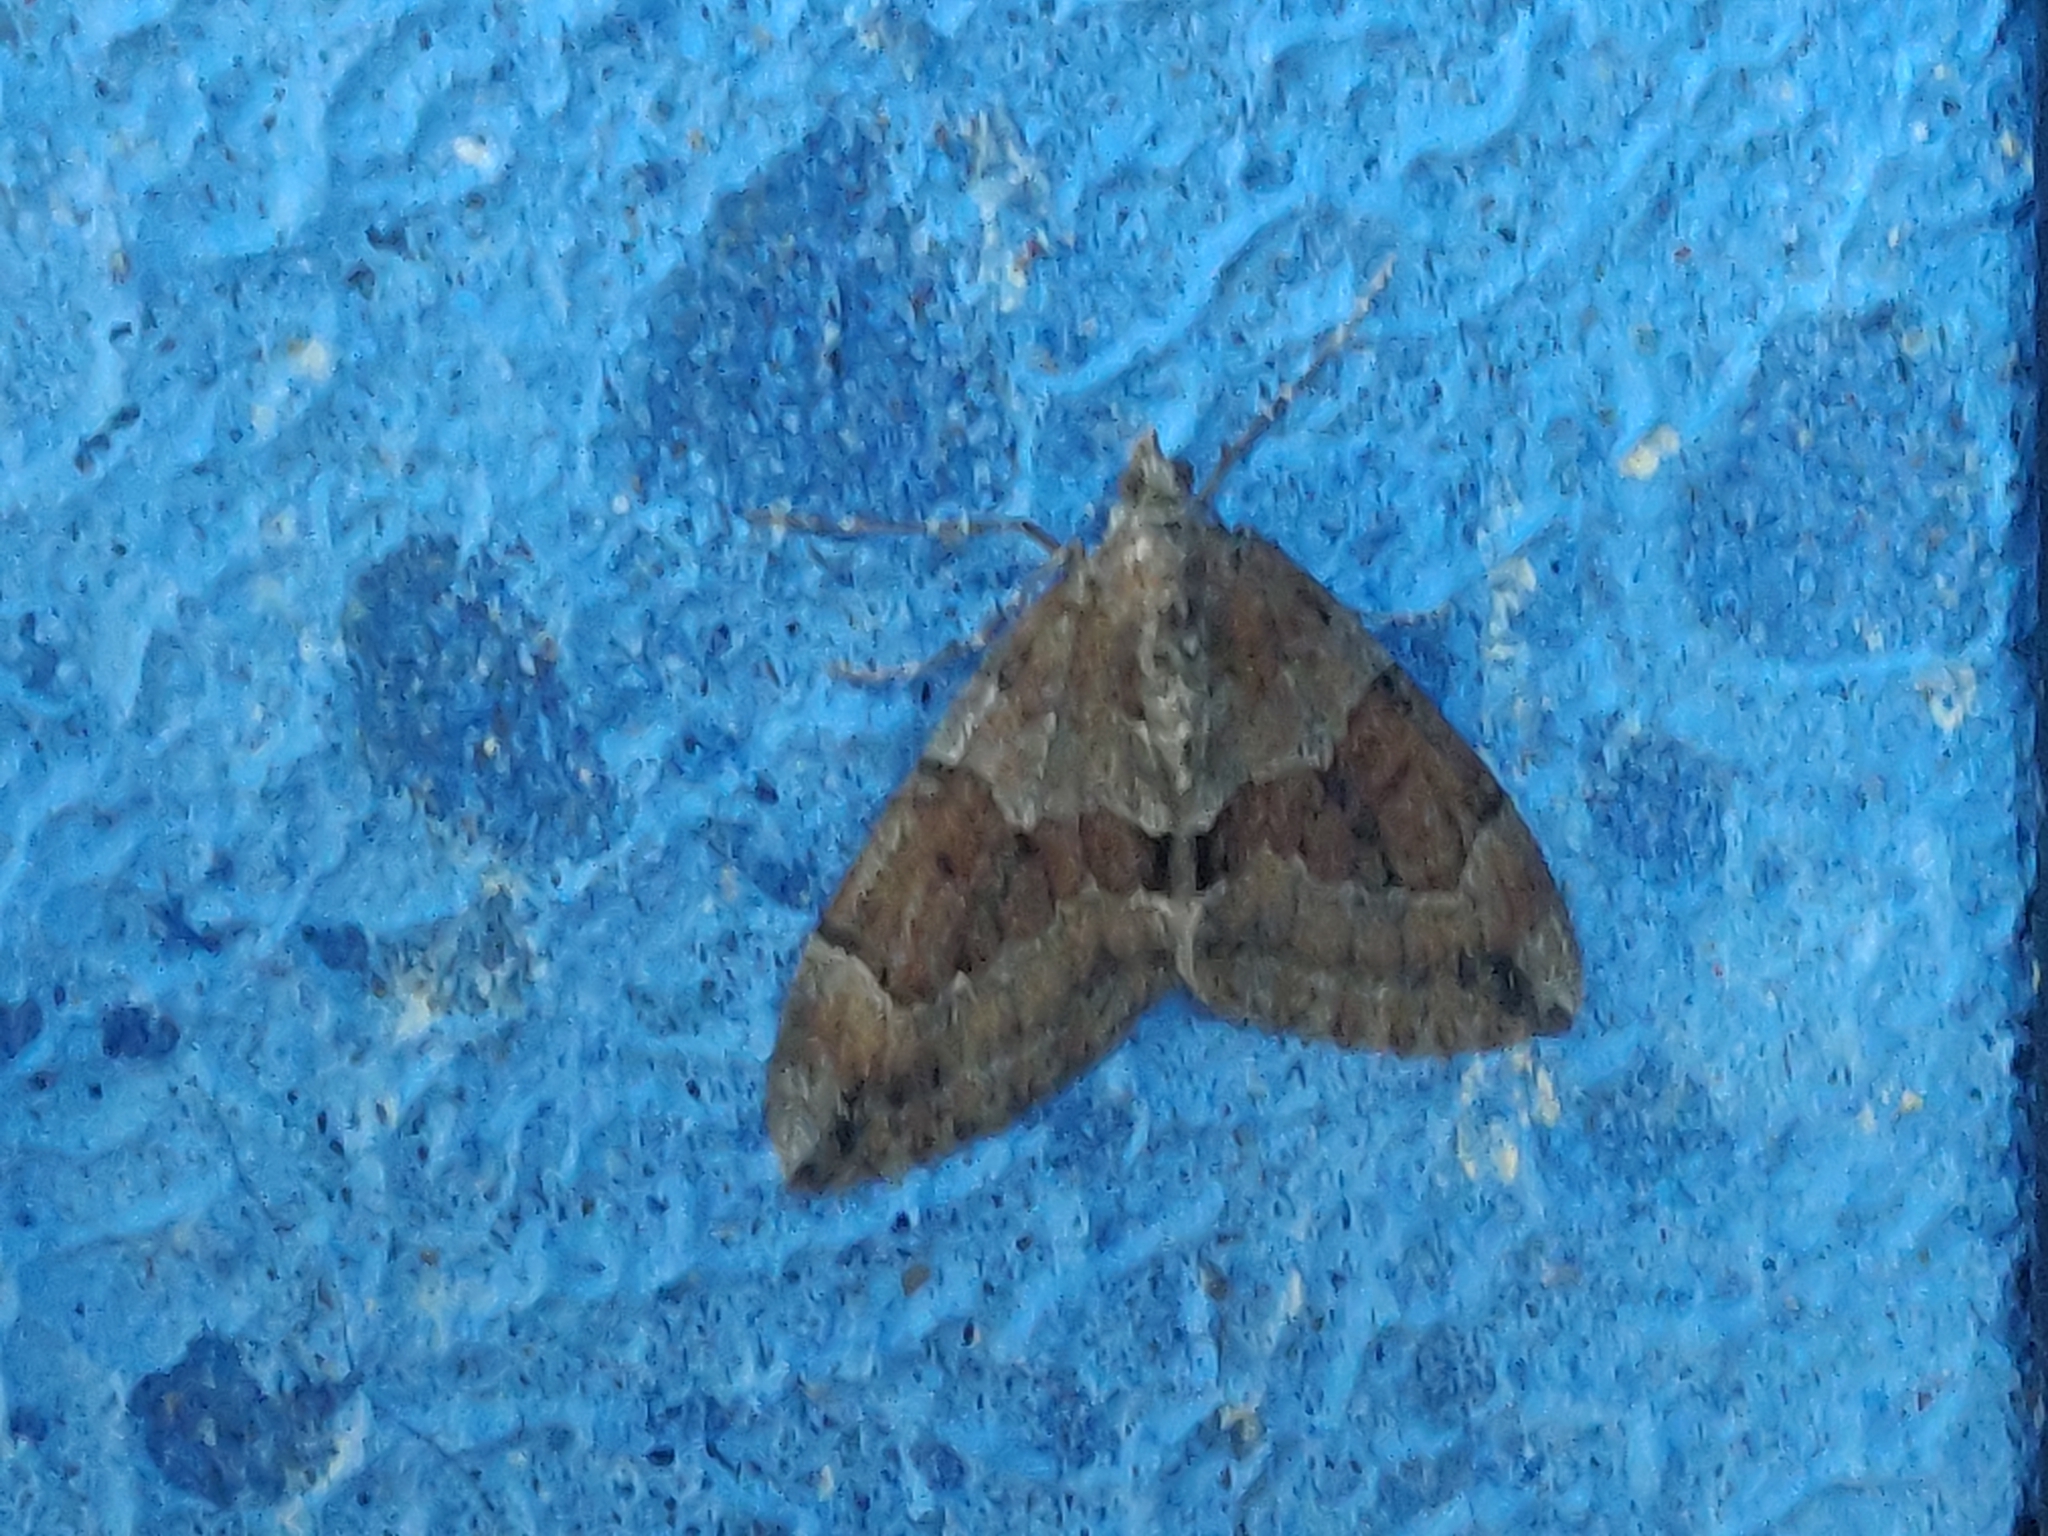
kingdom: Animalia
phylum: Arthropoda
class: Insecta
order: Lepidoptera
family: Geometridae
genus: Thera
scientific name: Thera obeliscata
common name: Grey pine carpet
